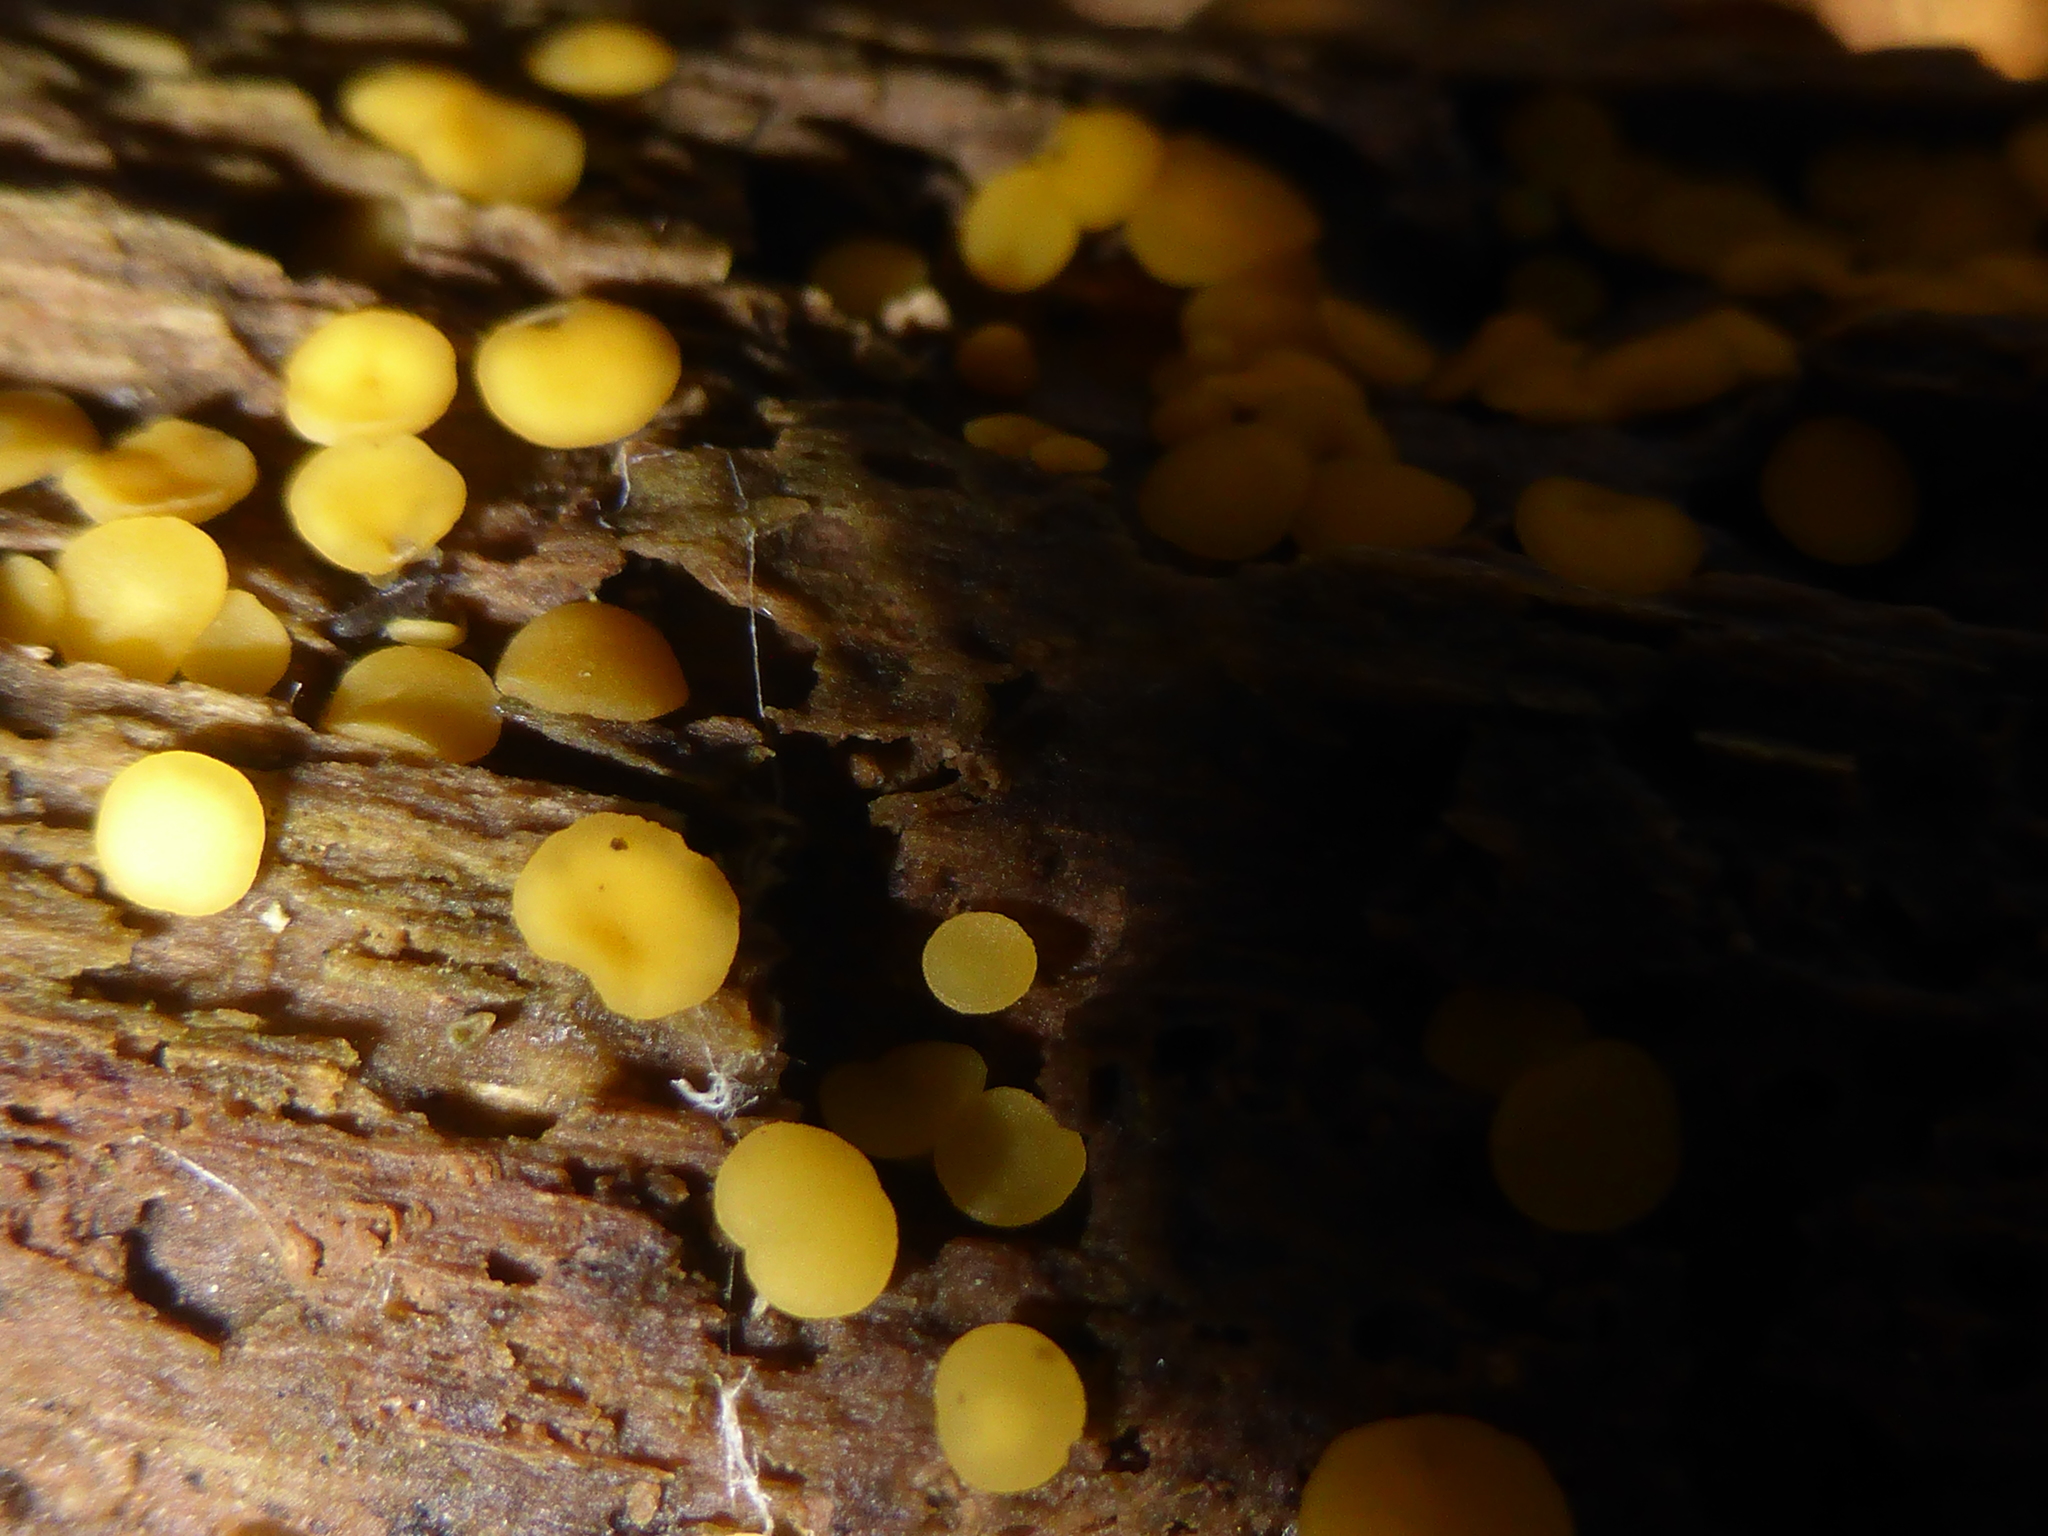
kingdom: Fungi
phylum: Ascomycota
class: Leotiomycetes
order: Helotiales
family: Pezizellaceae
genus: Calycina
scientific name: Calycina citrina
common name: Yellow fairy cups
